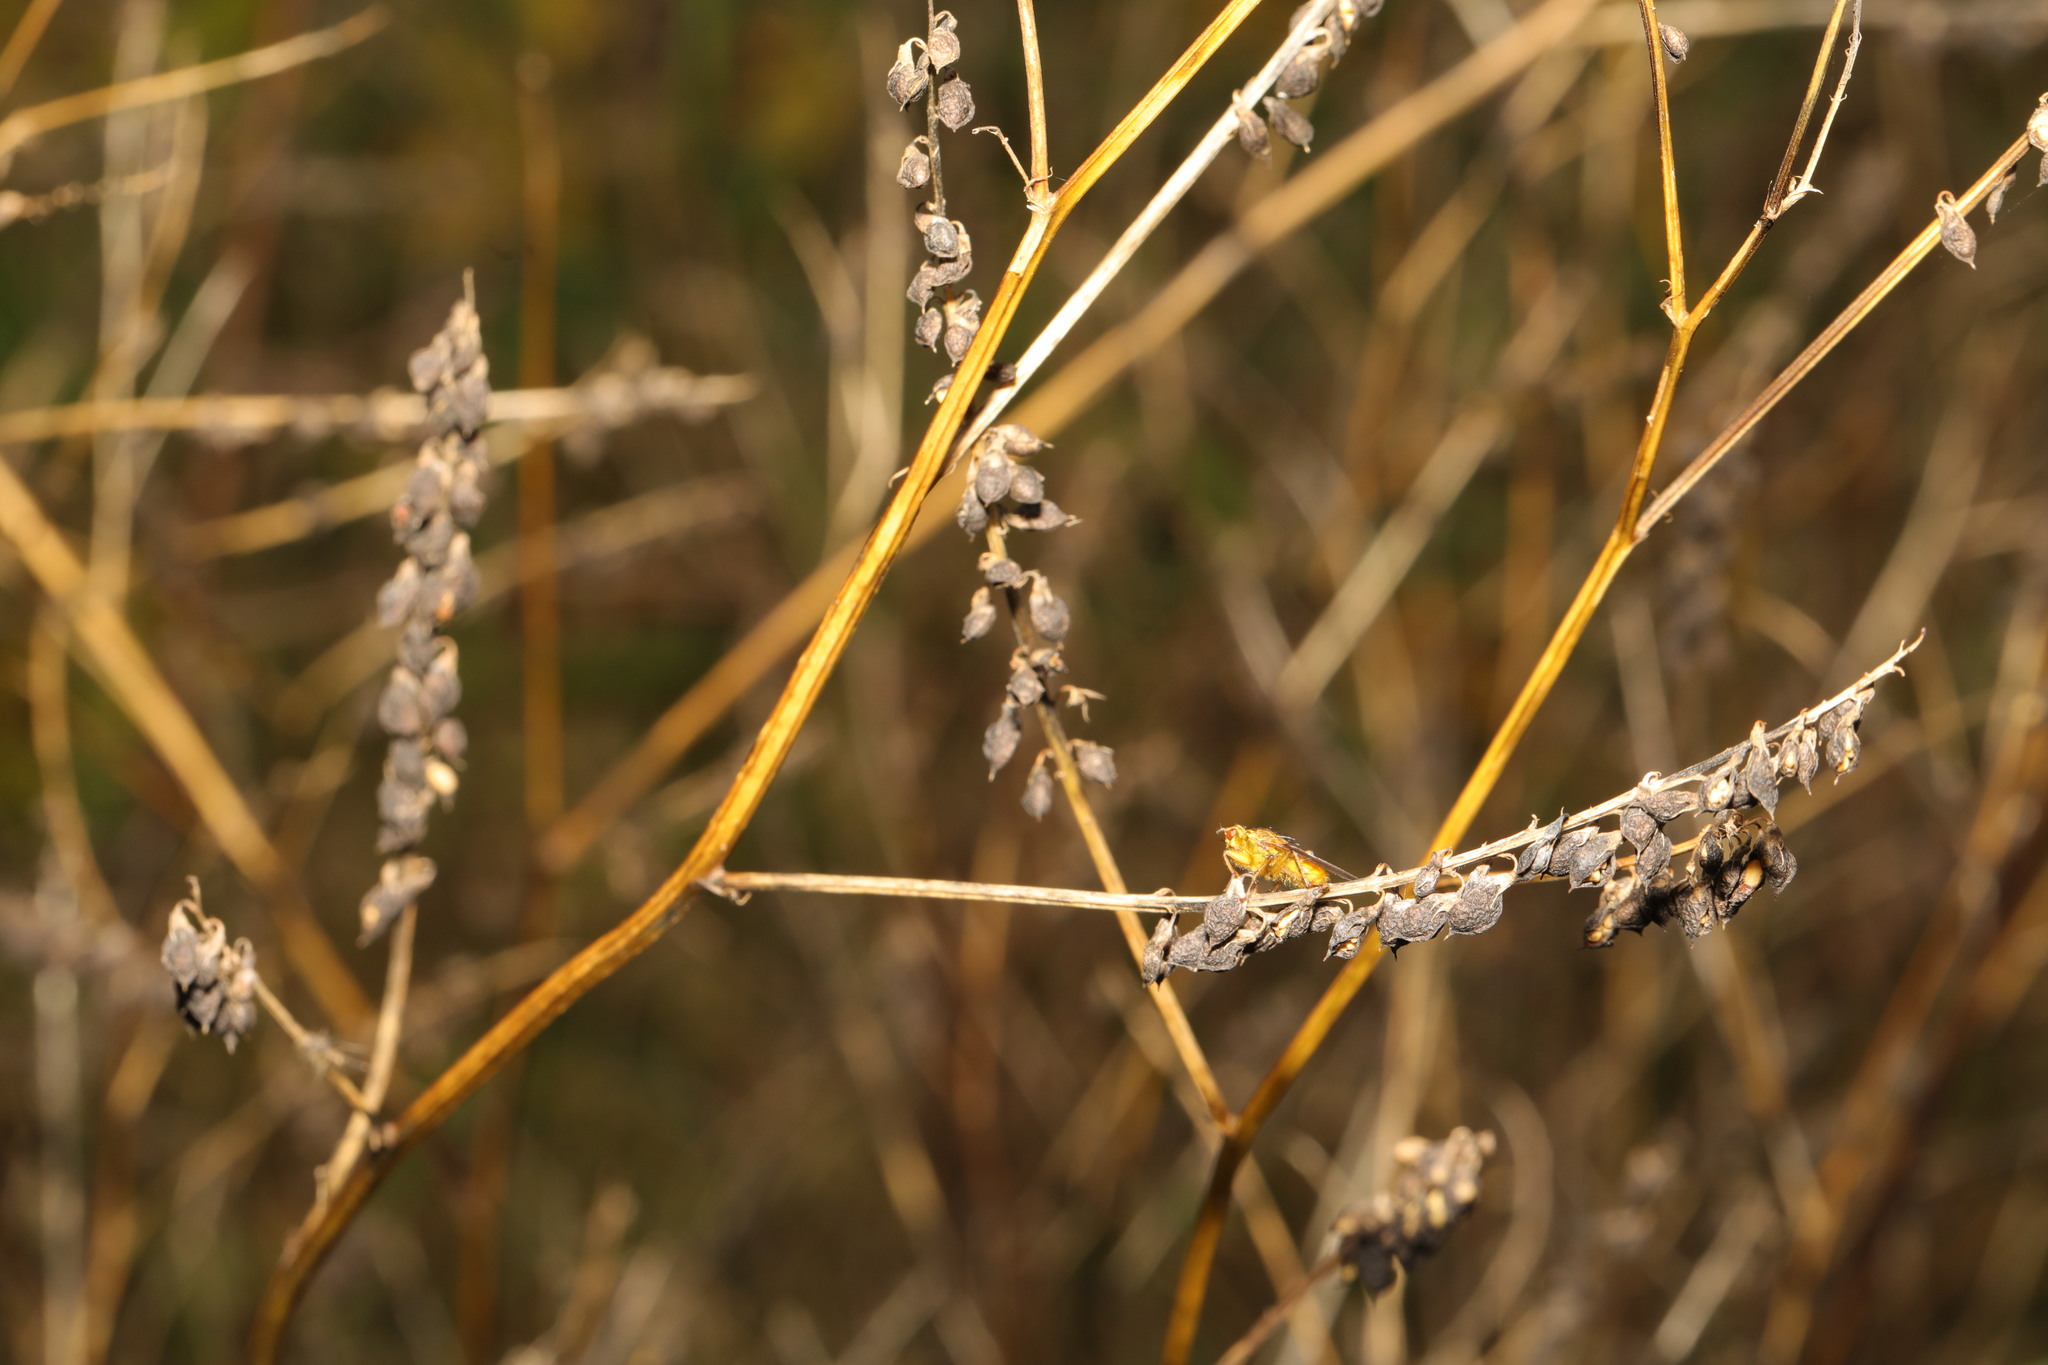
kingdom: Plantae
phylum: Tracheophyta
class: Magnoliopsida
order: Fabales
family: Fabaceae
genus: Melilotus
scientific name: Melilotus albus
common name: White melilot
